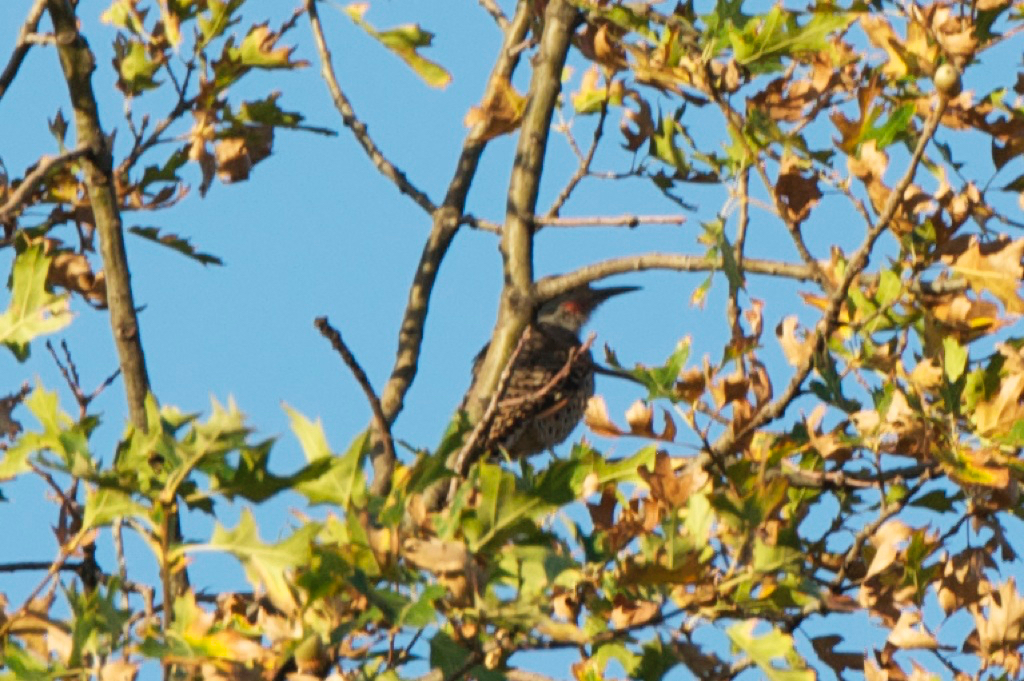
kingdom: Animalia
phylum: Chordata
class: Aves
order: Piciformes
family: Picidae
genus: Colaptes
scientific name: Colaptes auratus
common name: Northern flicker
